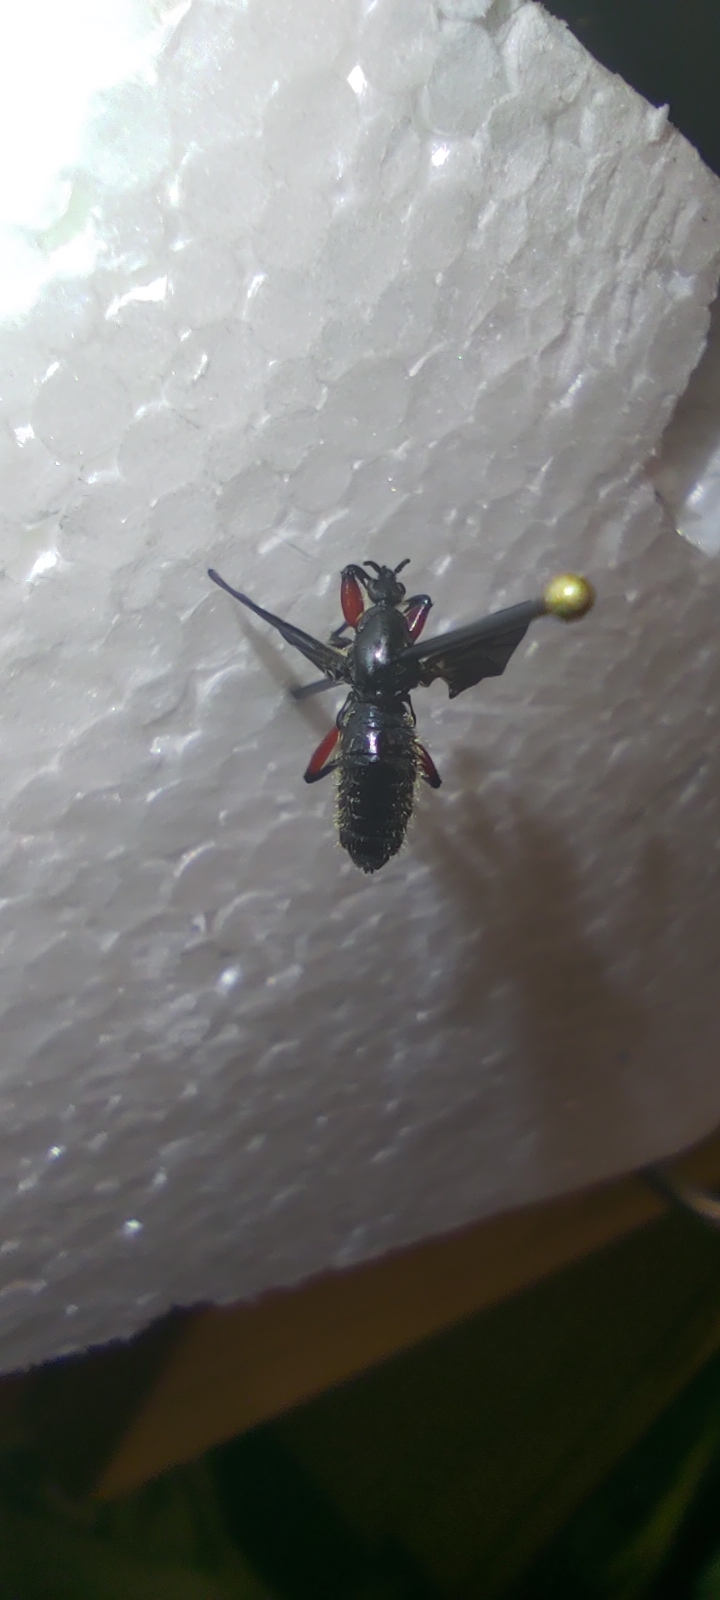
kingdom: Animalia
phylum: Arthropoda
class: Insecta
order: Diptera
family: Bibionidae
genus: Bibio
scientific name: Bibio femoratus
